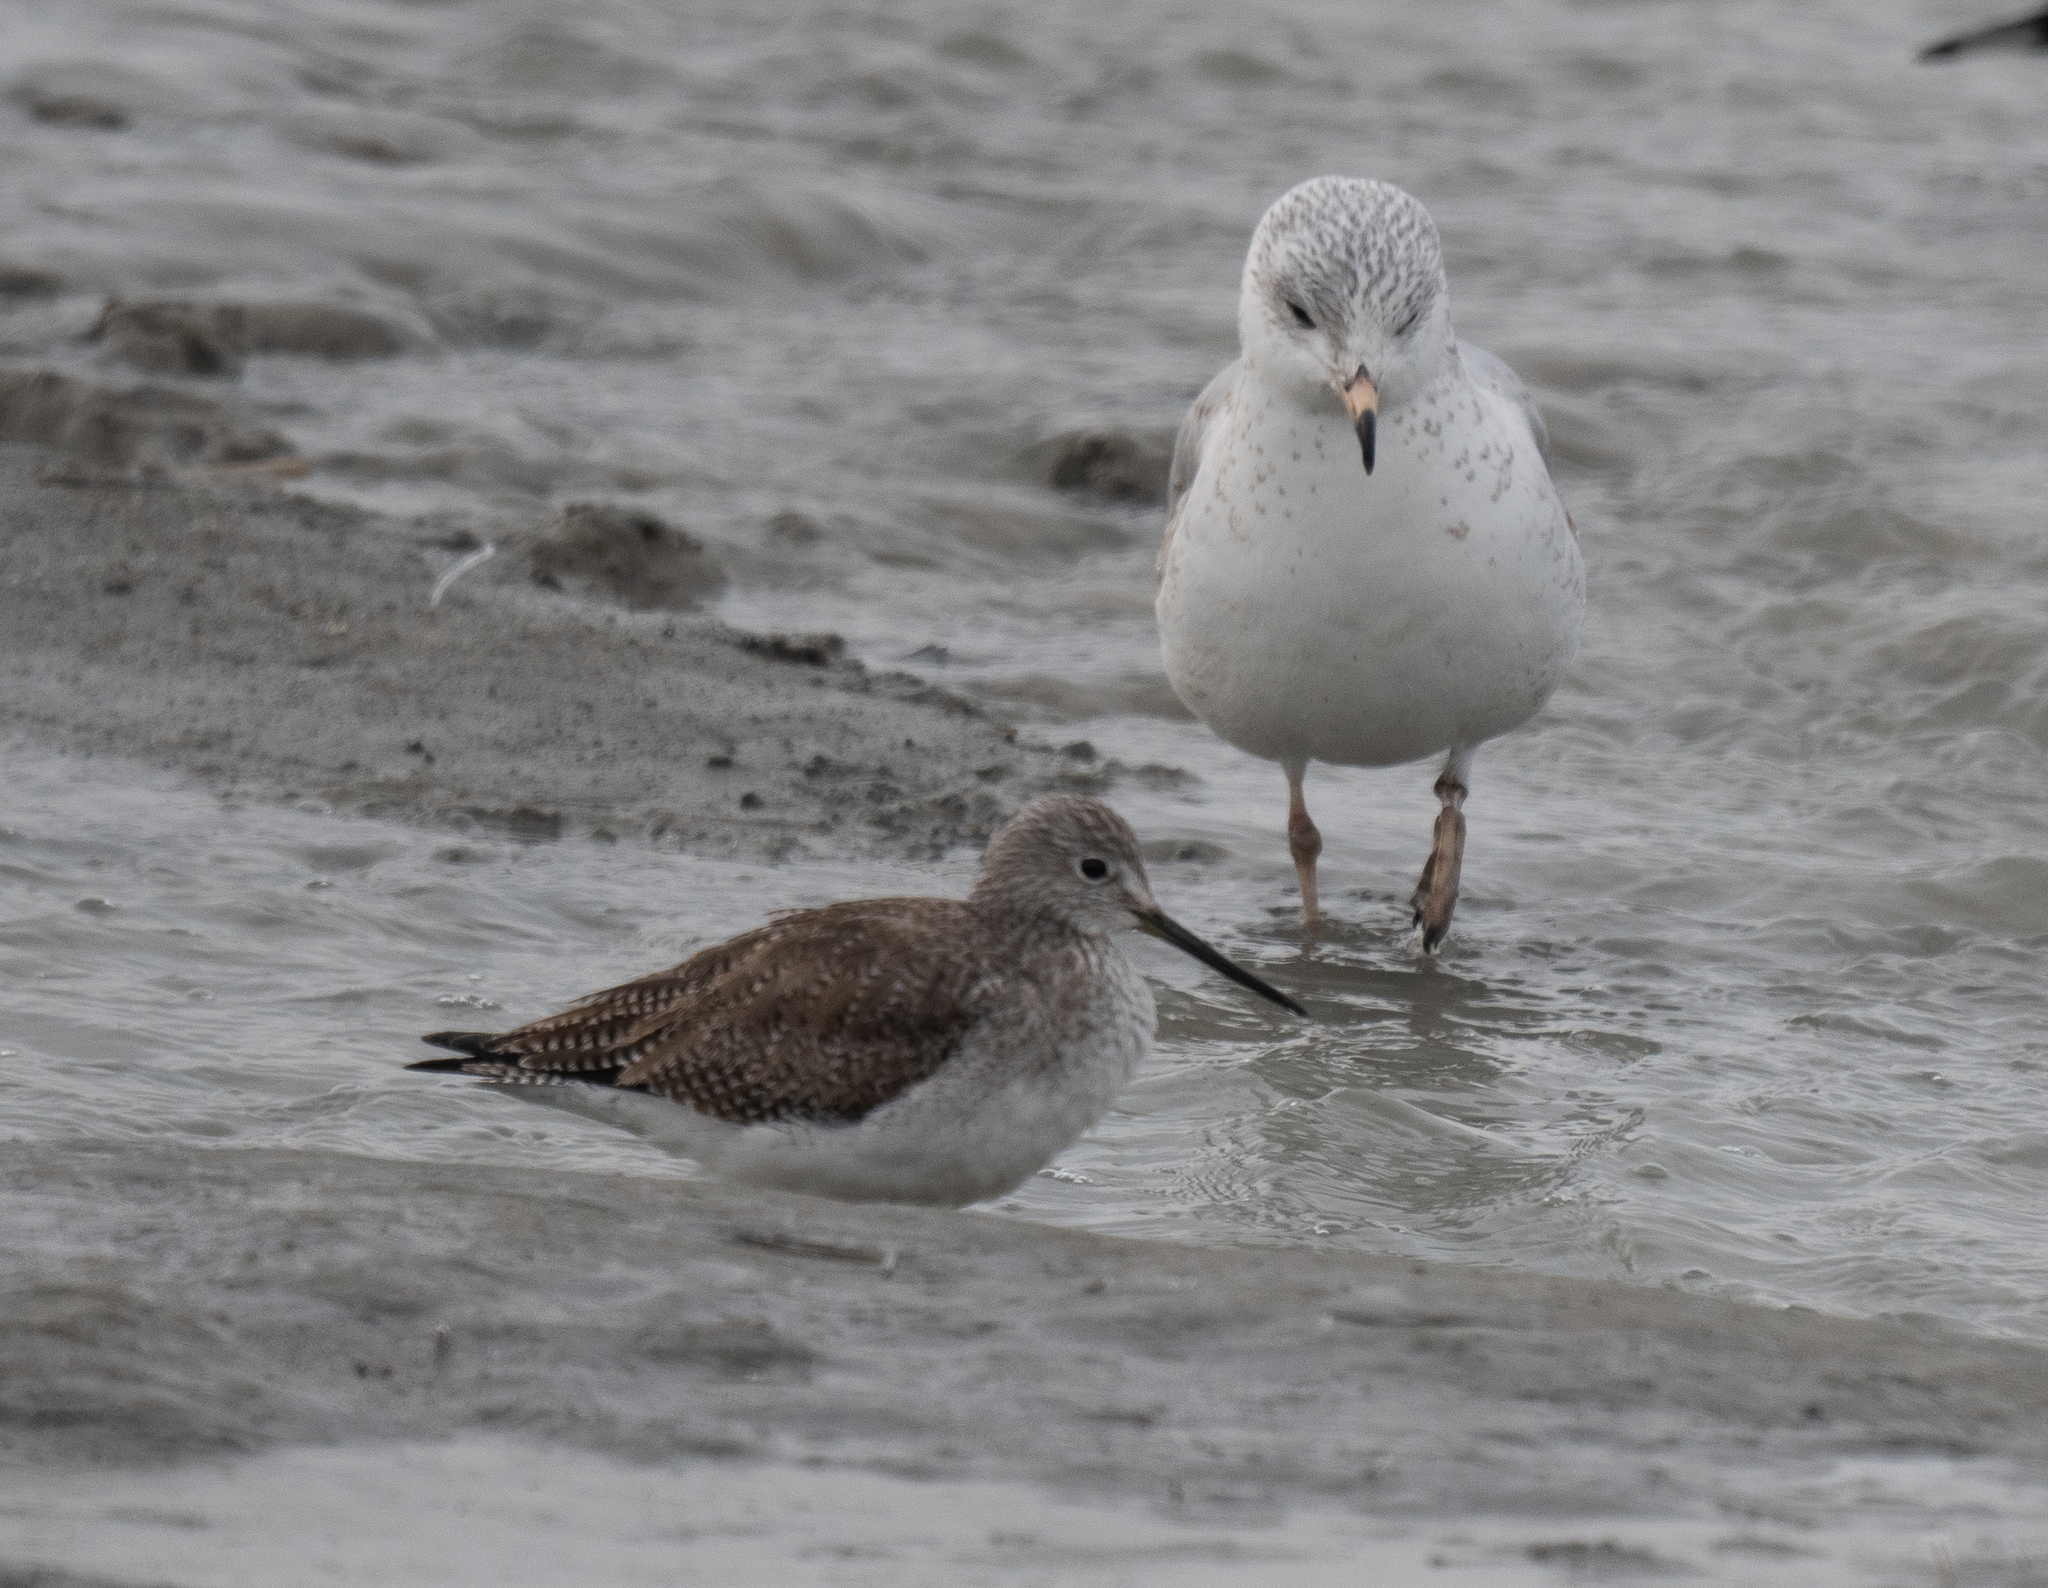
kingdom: Animalia
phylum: Chordata
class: Aves
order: Charadriiformes
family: Scolopacidae
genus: Tringa
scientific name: Tringa melanoleuca
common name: Greater yellowlegs
